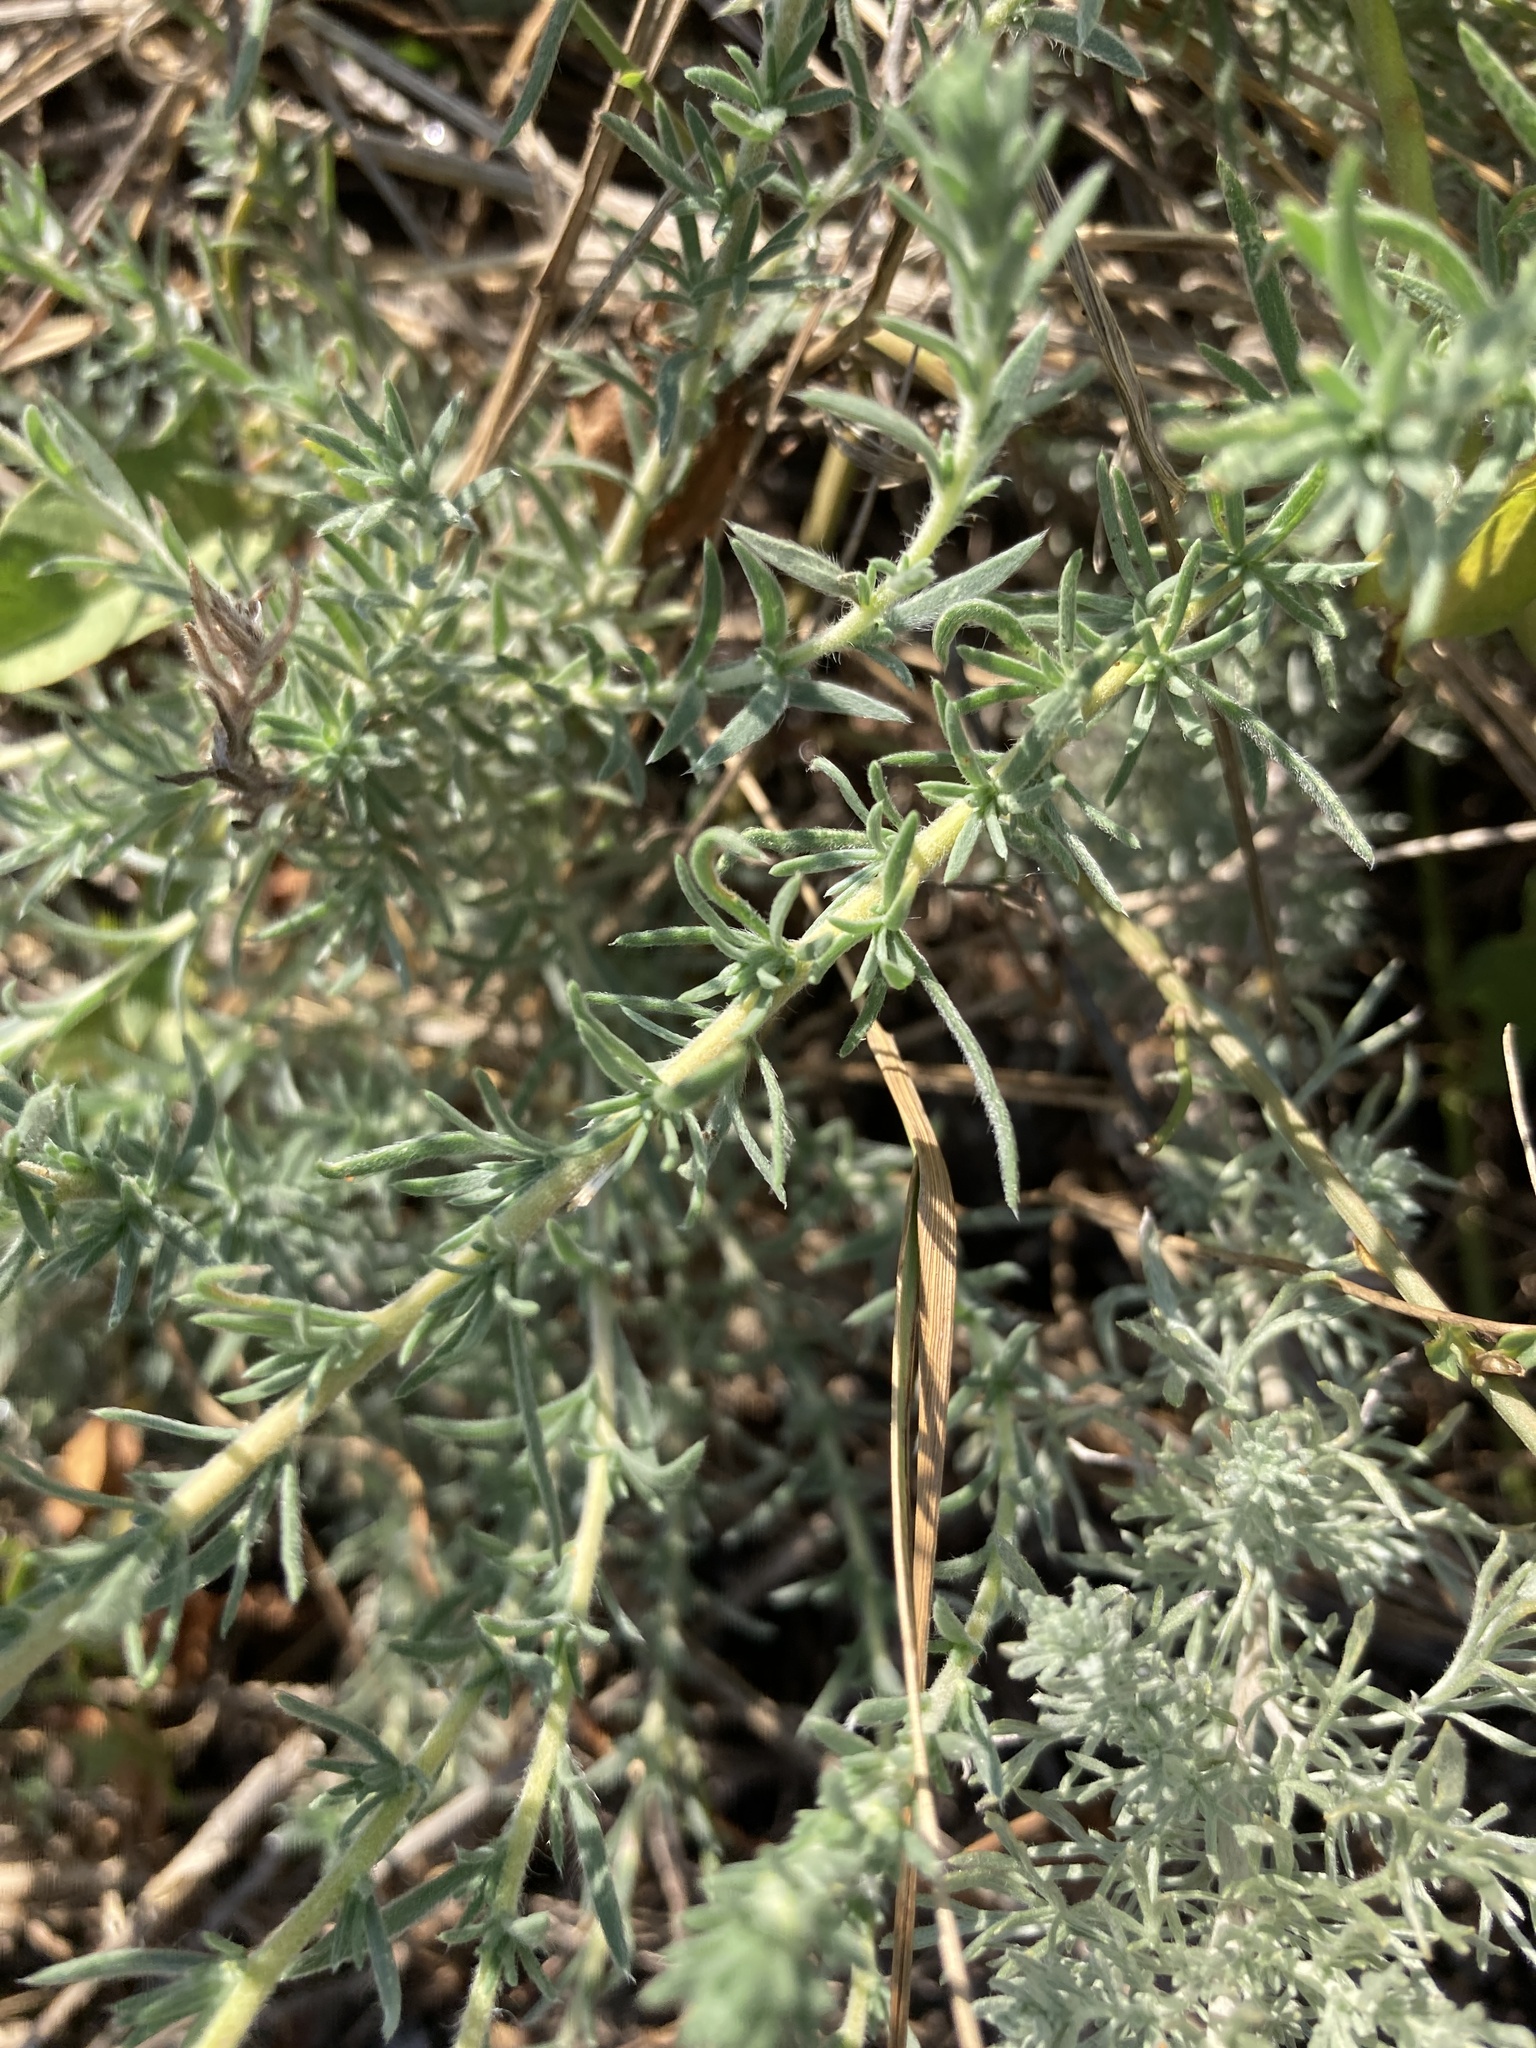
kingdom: Plantae
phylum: Tracheophyta
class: Magnoliopsida
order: Caryophyllales
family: Amaranthaceae
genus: Bassia
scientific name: Bassia prostrata
